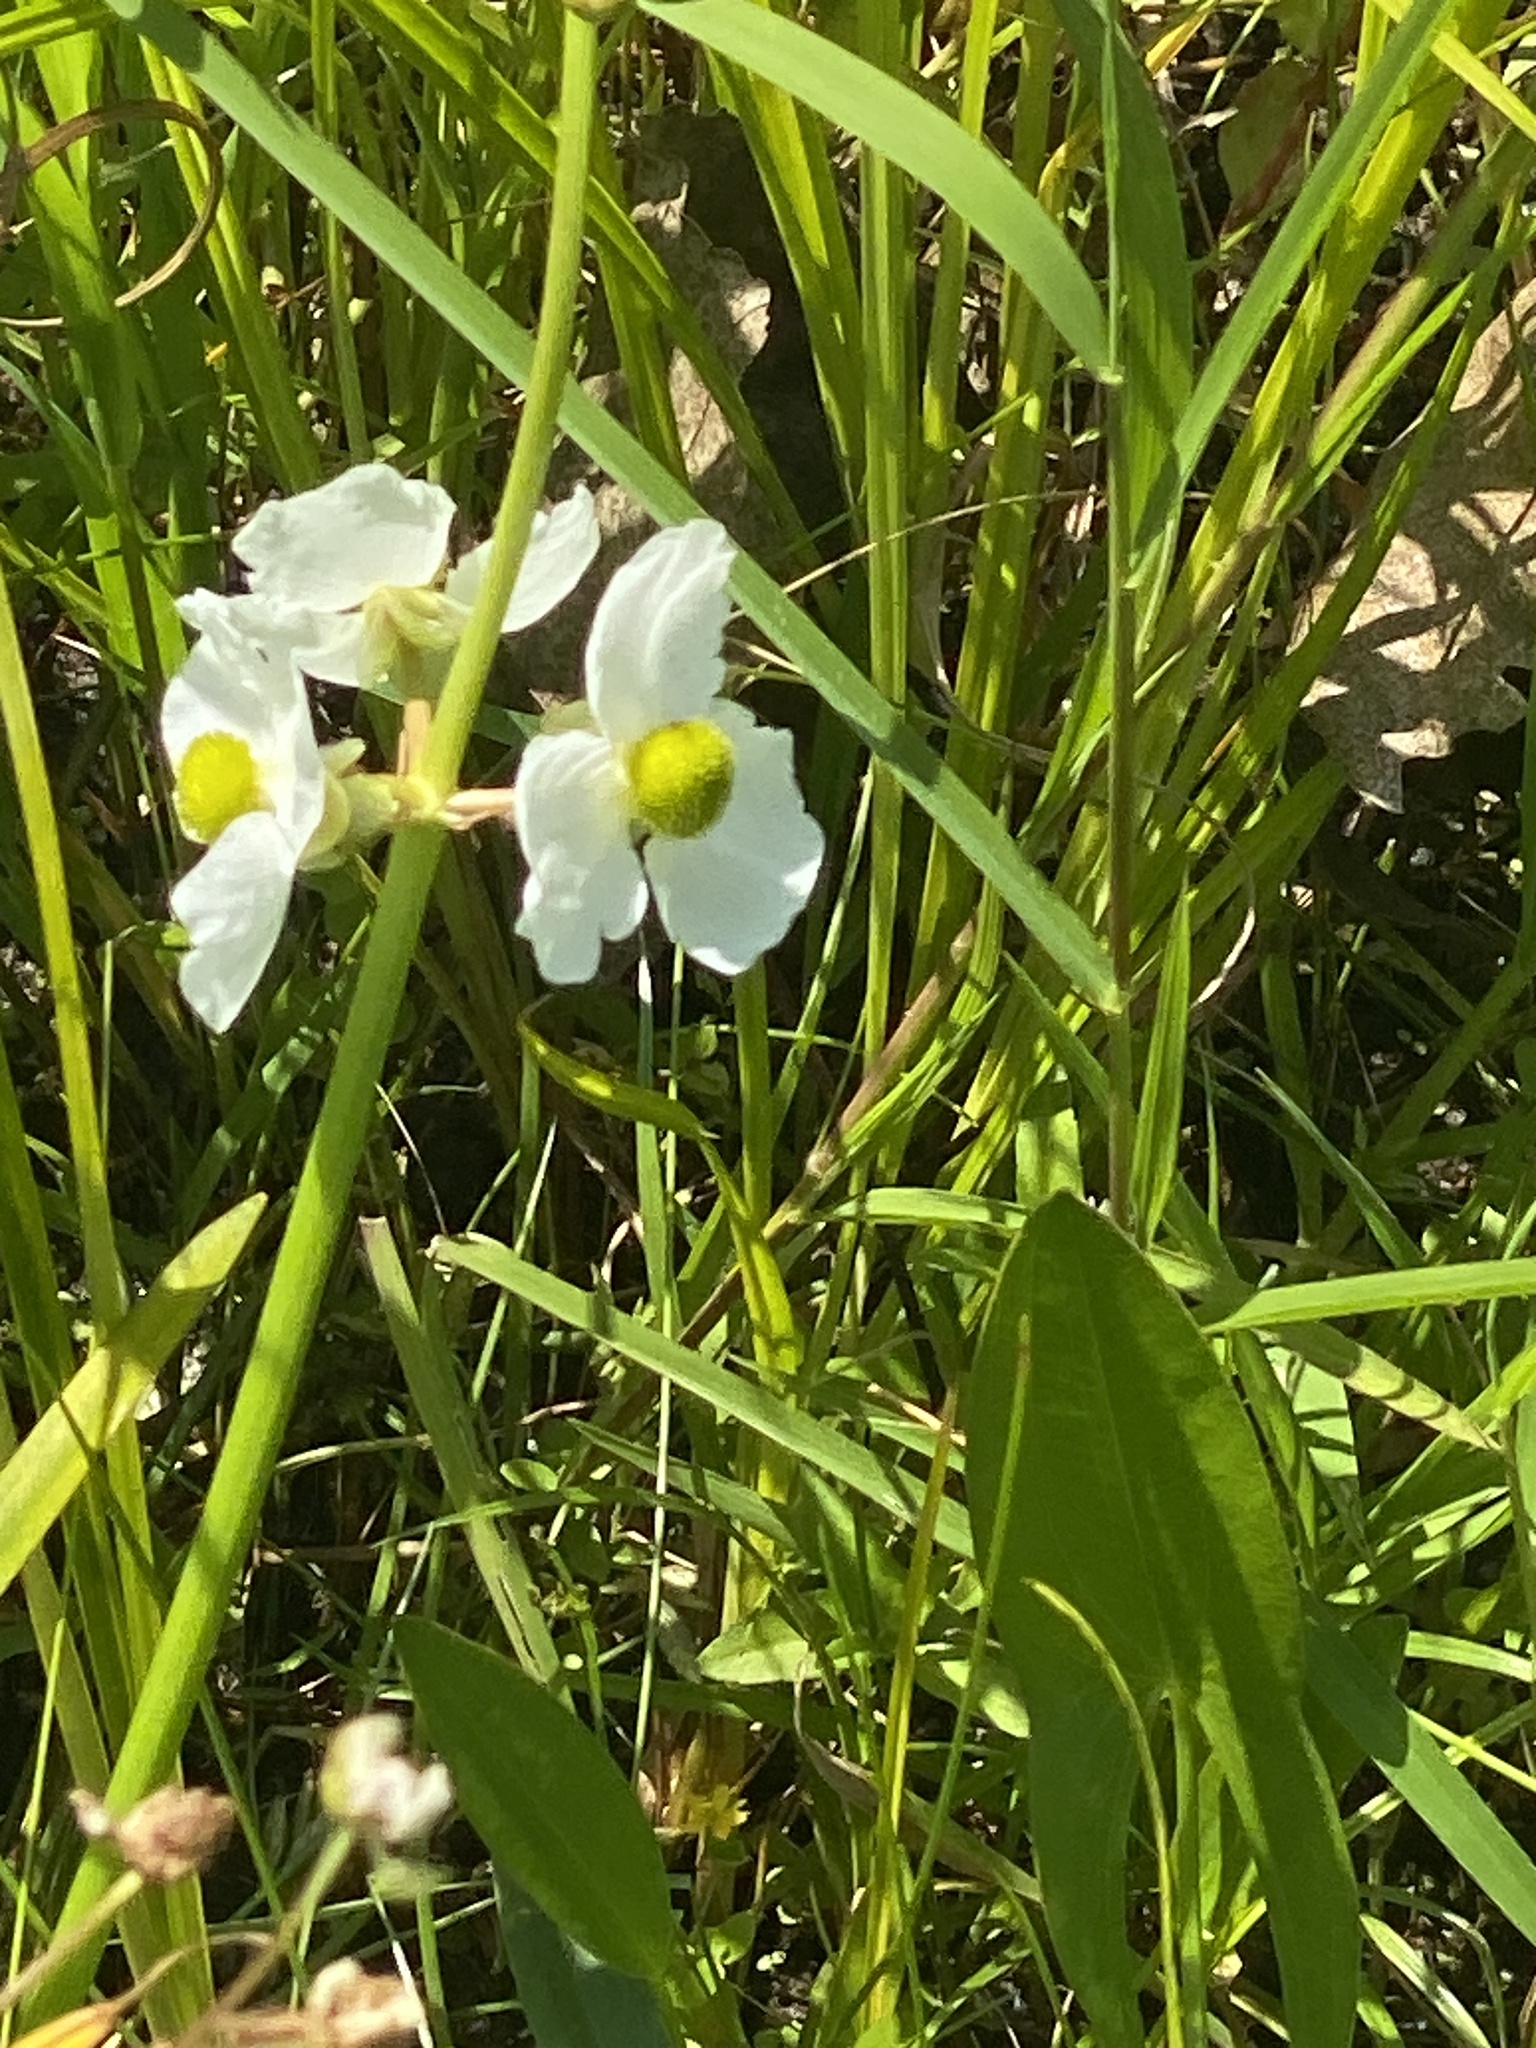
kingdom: Plantae
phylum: Tracheophyta
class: Liliopsida
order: Alismatales
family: Alismataceae
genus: Sagittaria
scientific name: Sagittaria latifolia
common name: Duck-potato
